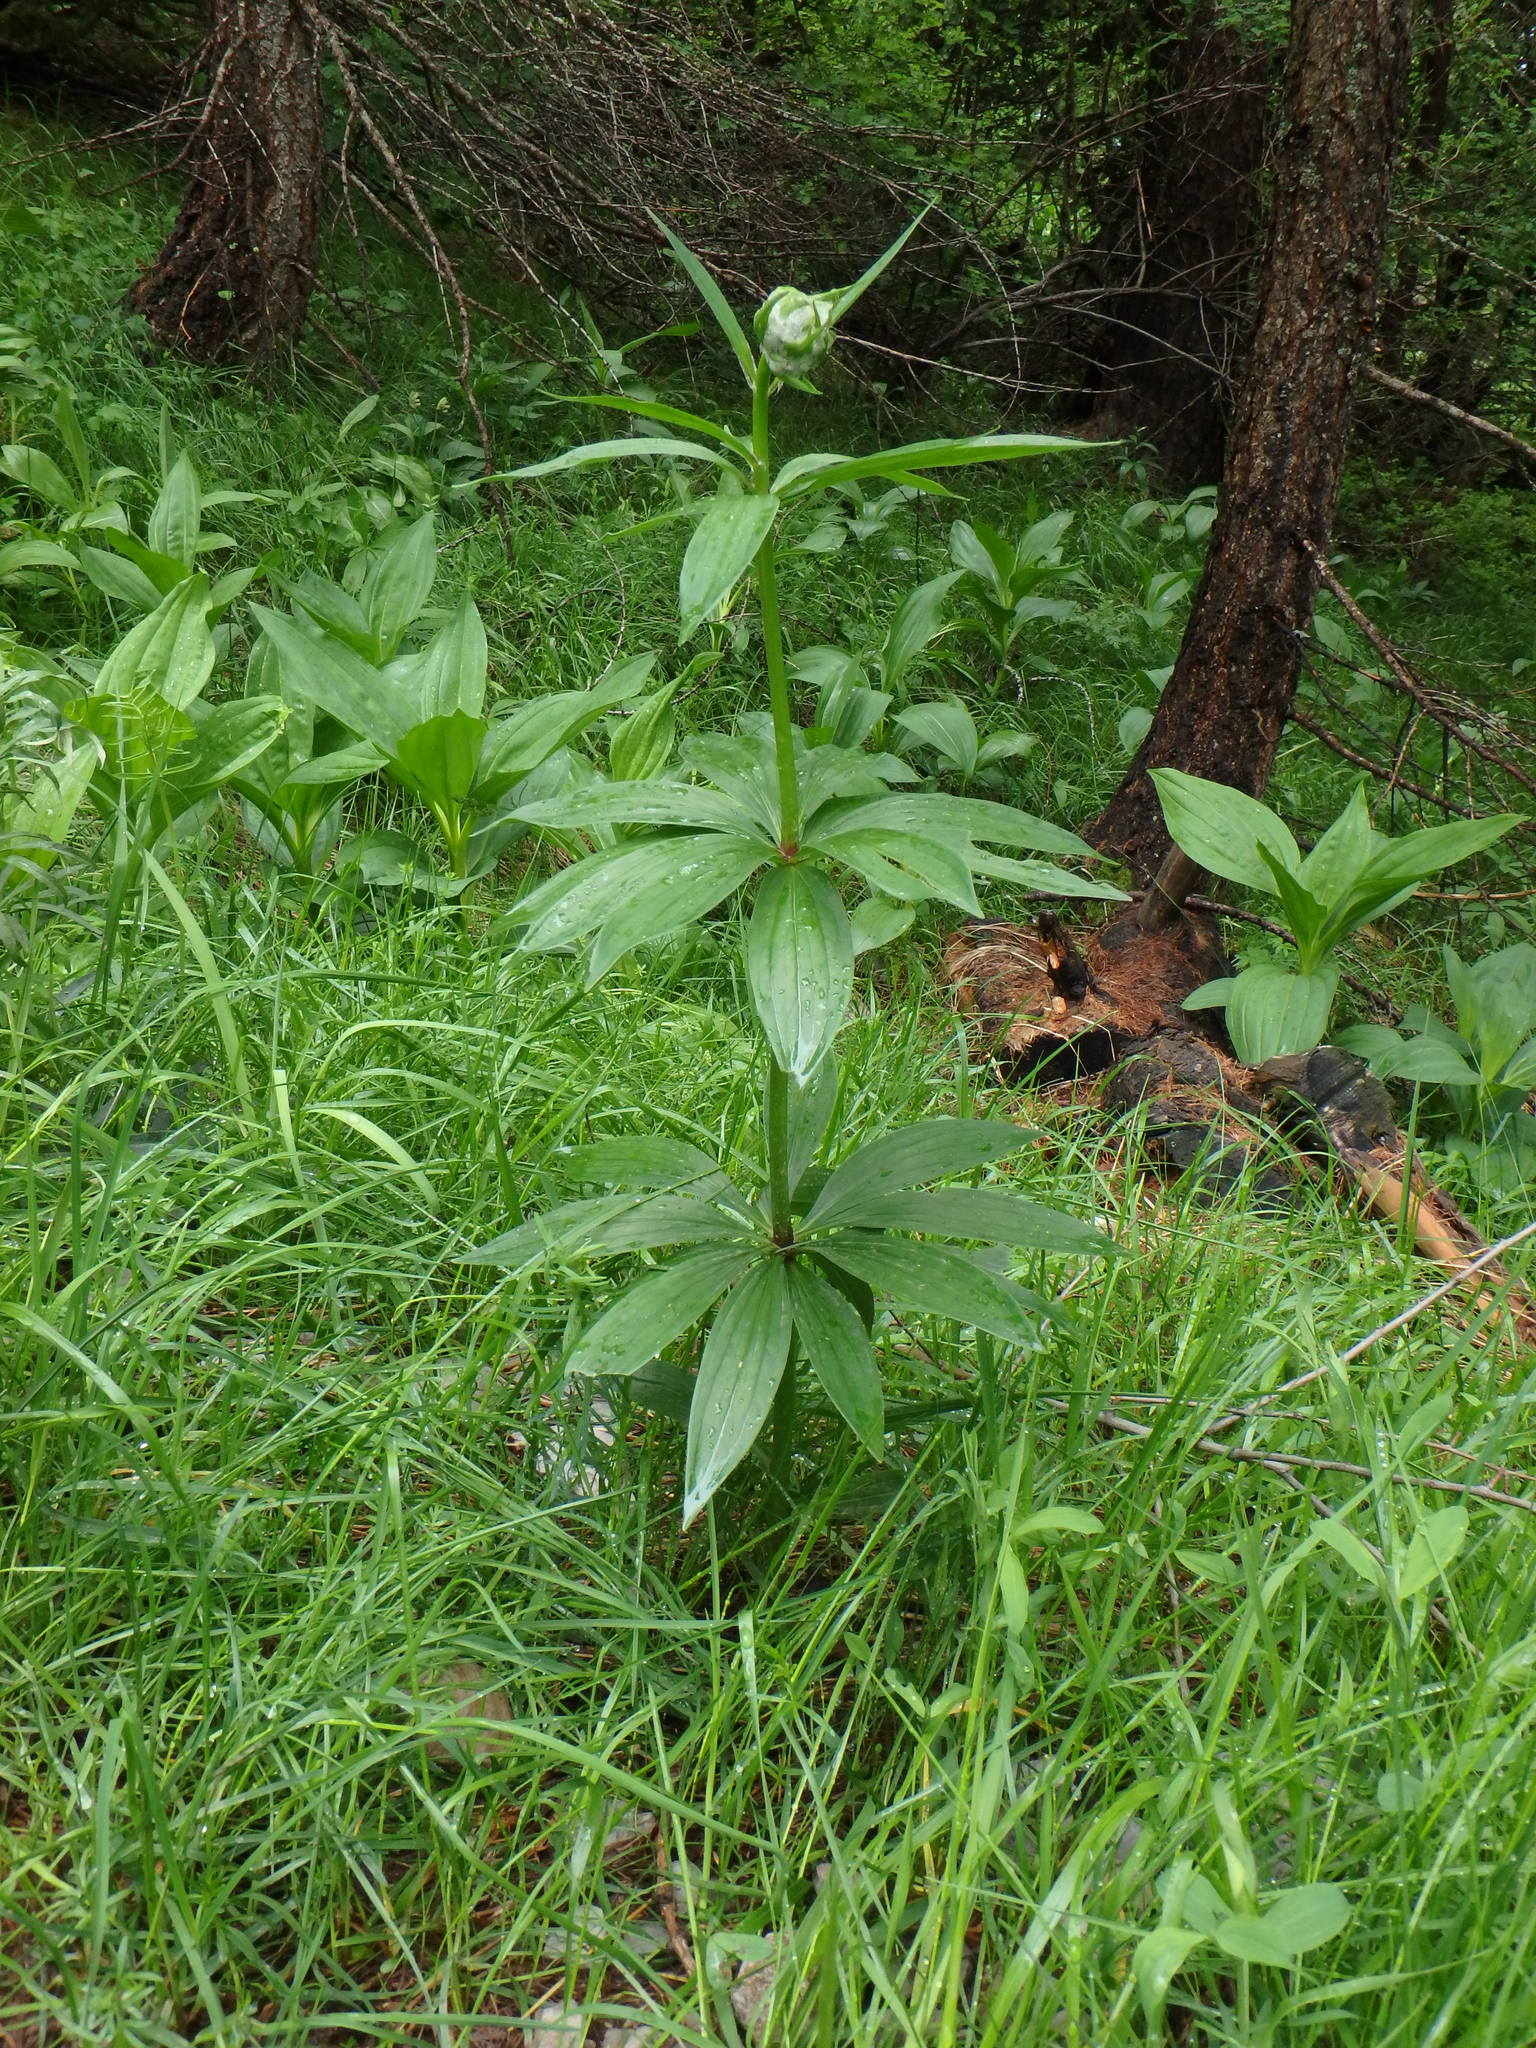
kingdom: Plantae
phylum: Tracheophyta
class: Liliopsida
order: Liliales
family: Liliaceae
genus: Lilium
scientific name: Lilium martagon
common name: Martagon lily
